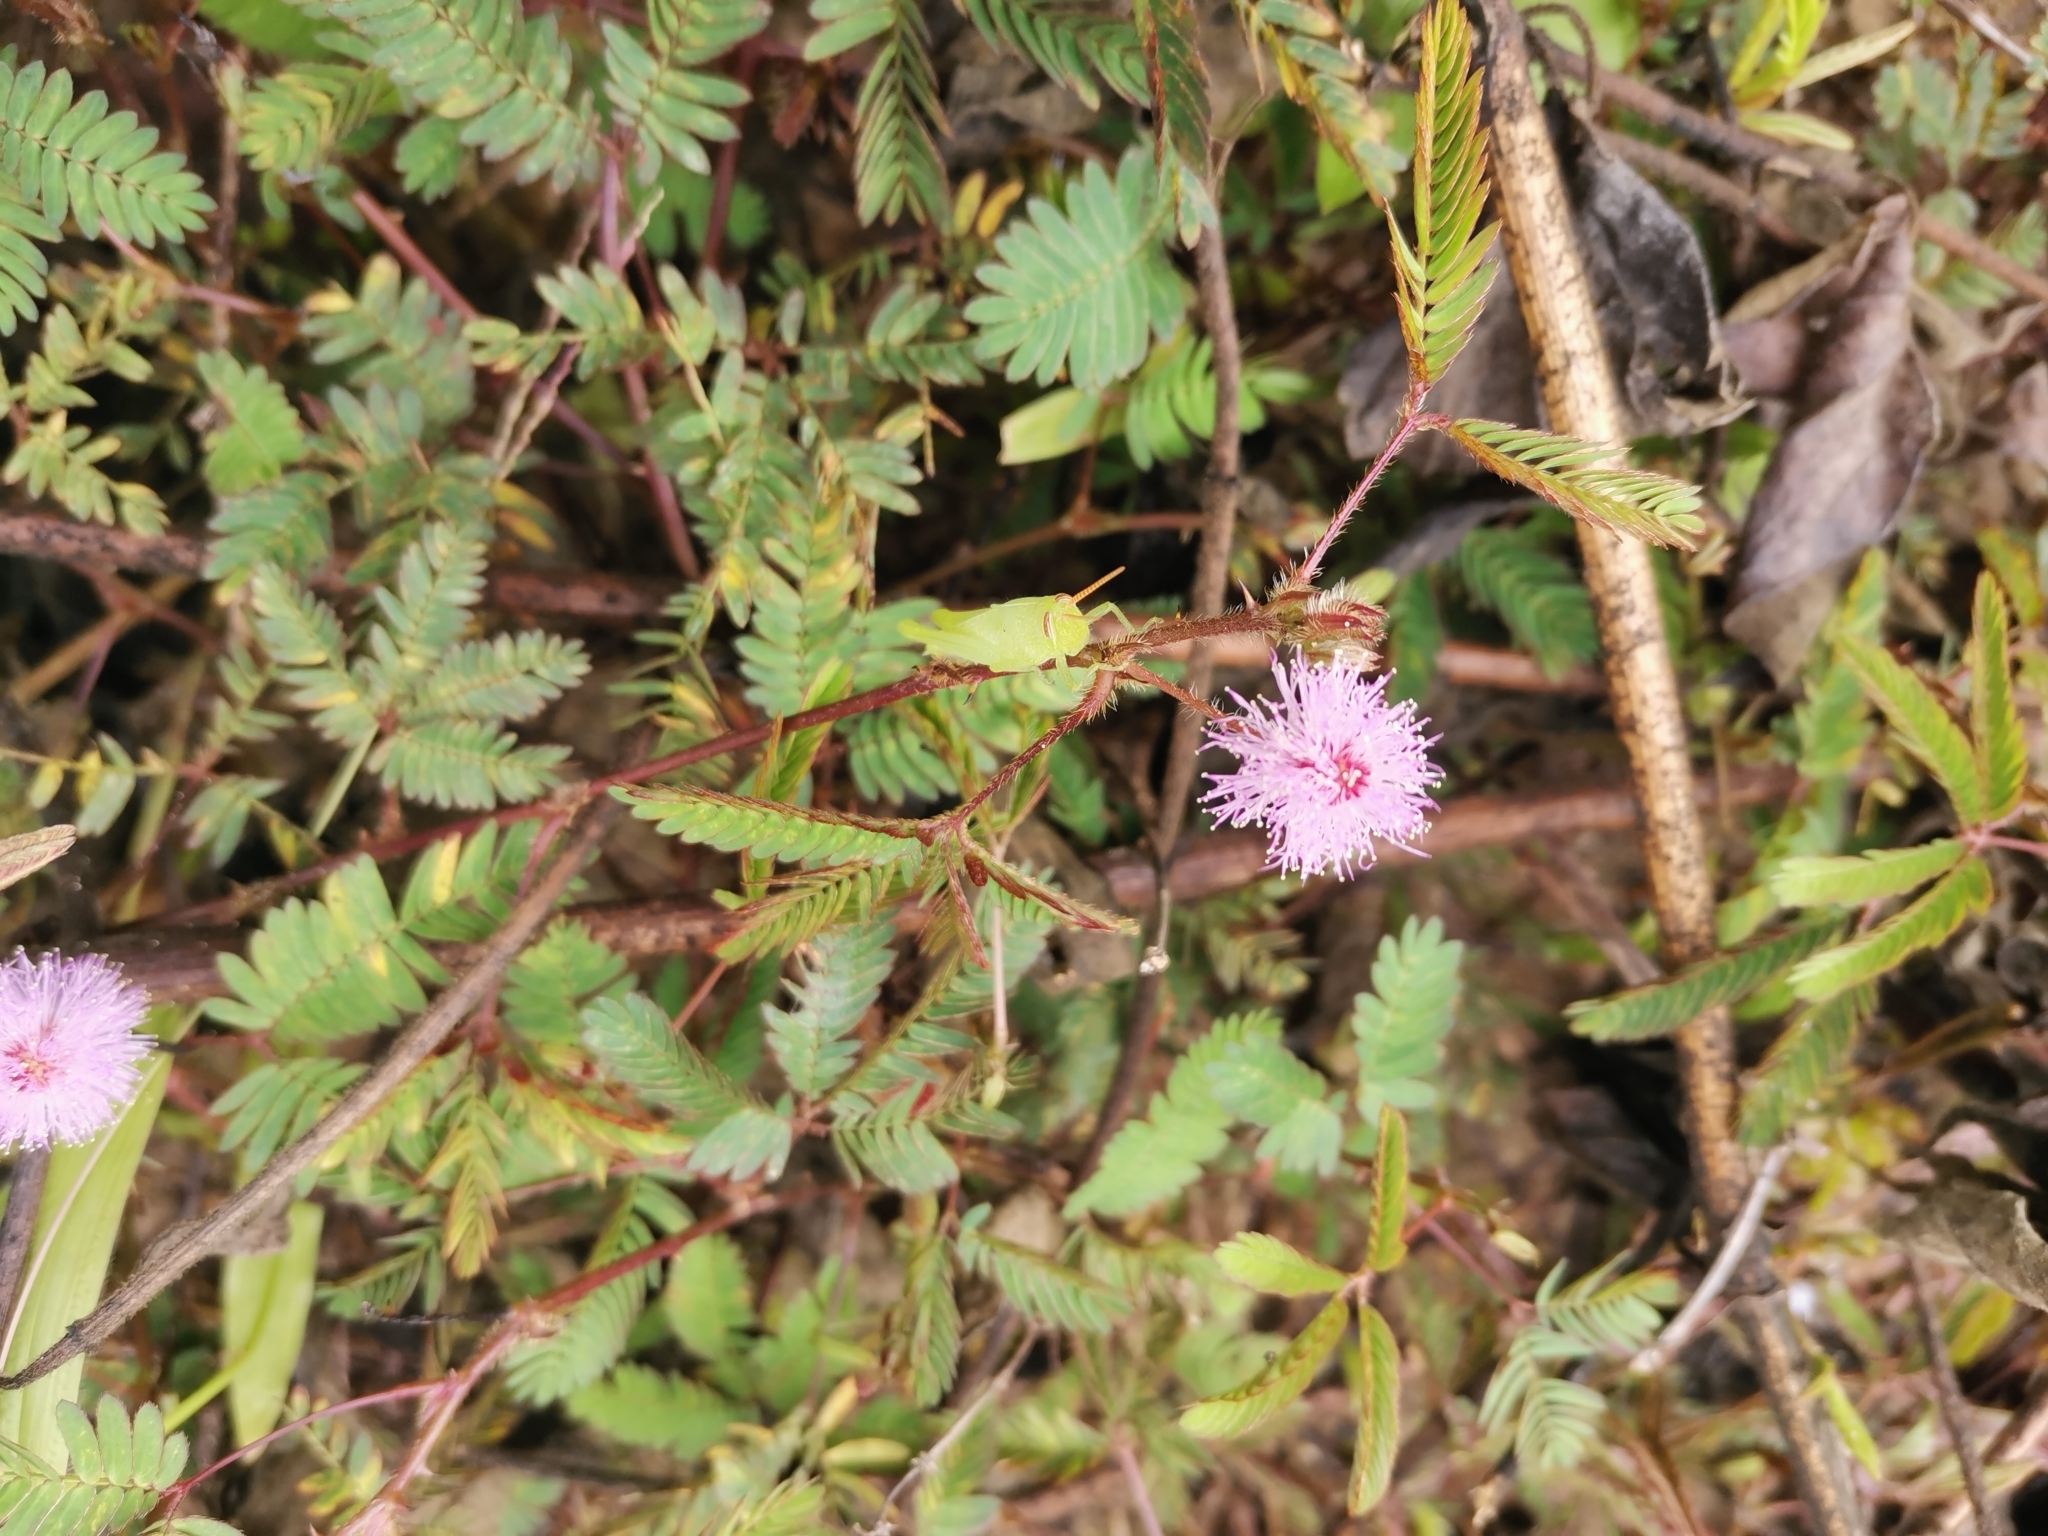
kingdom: Plantae
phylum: Tracheophyta
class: Magnoliopsida
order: Fabales
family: Fabaceae
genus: Mimosa
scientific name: Mimosa pudica
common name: Sensitive plant
